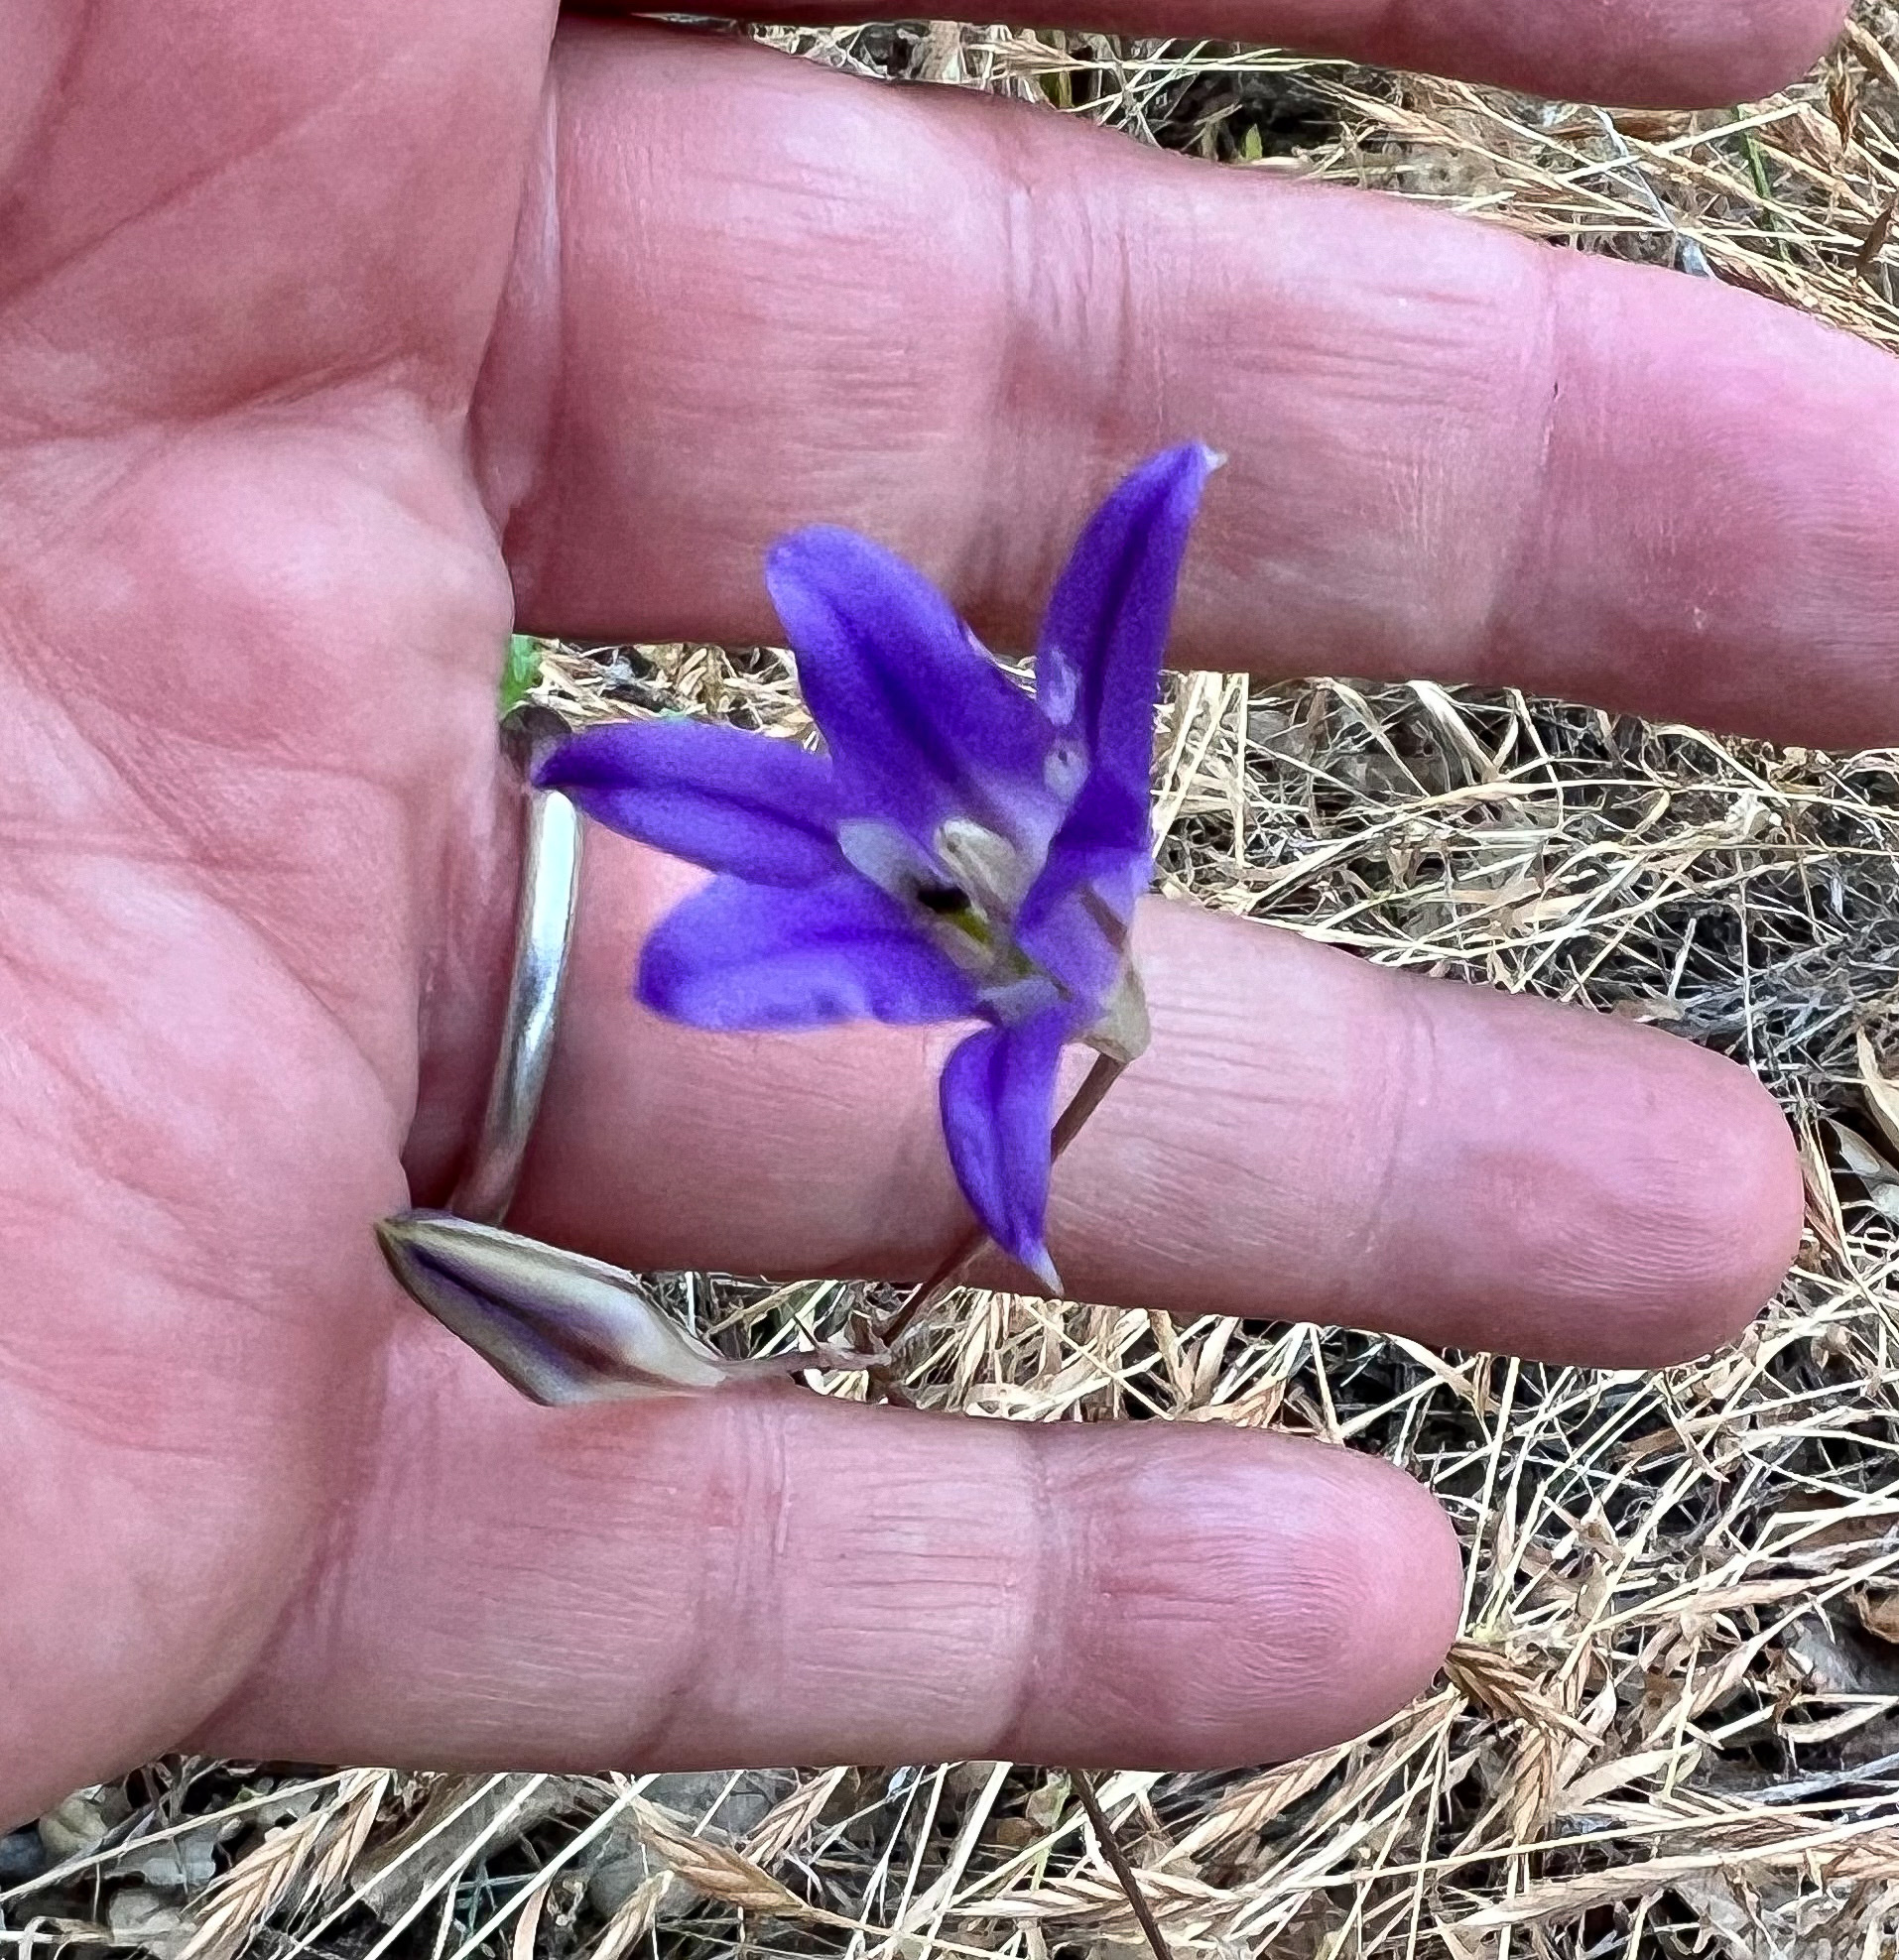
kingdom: Plantae
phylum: Tracheophyta
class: Liliopsida
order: Asparagales
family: Asparagaceae
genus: Brodiaea
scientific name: Brodiaea elegans
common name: Elegant cluster-lily
